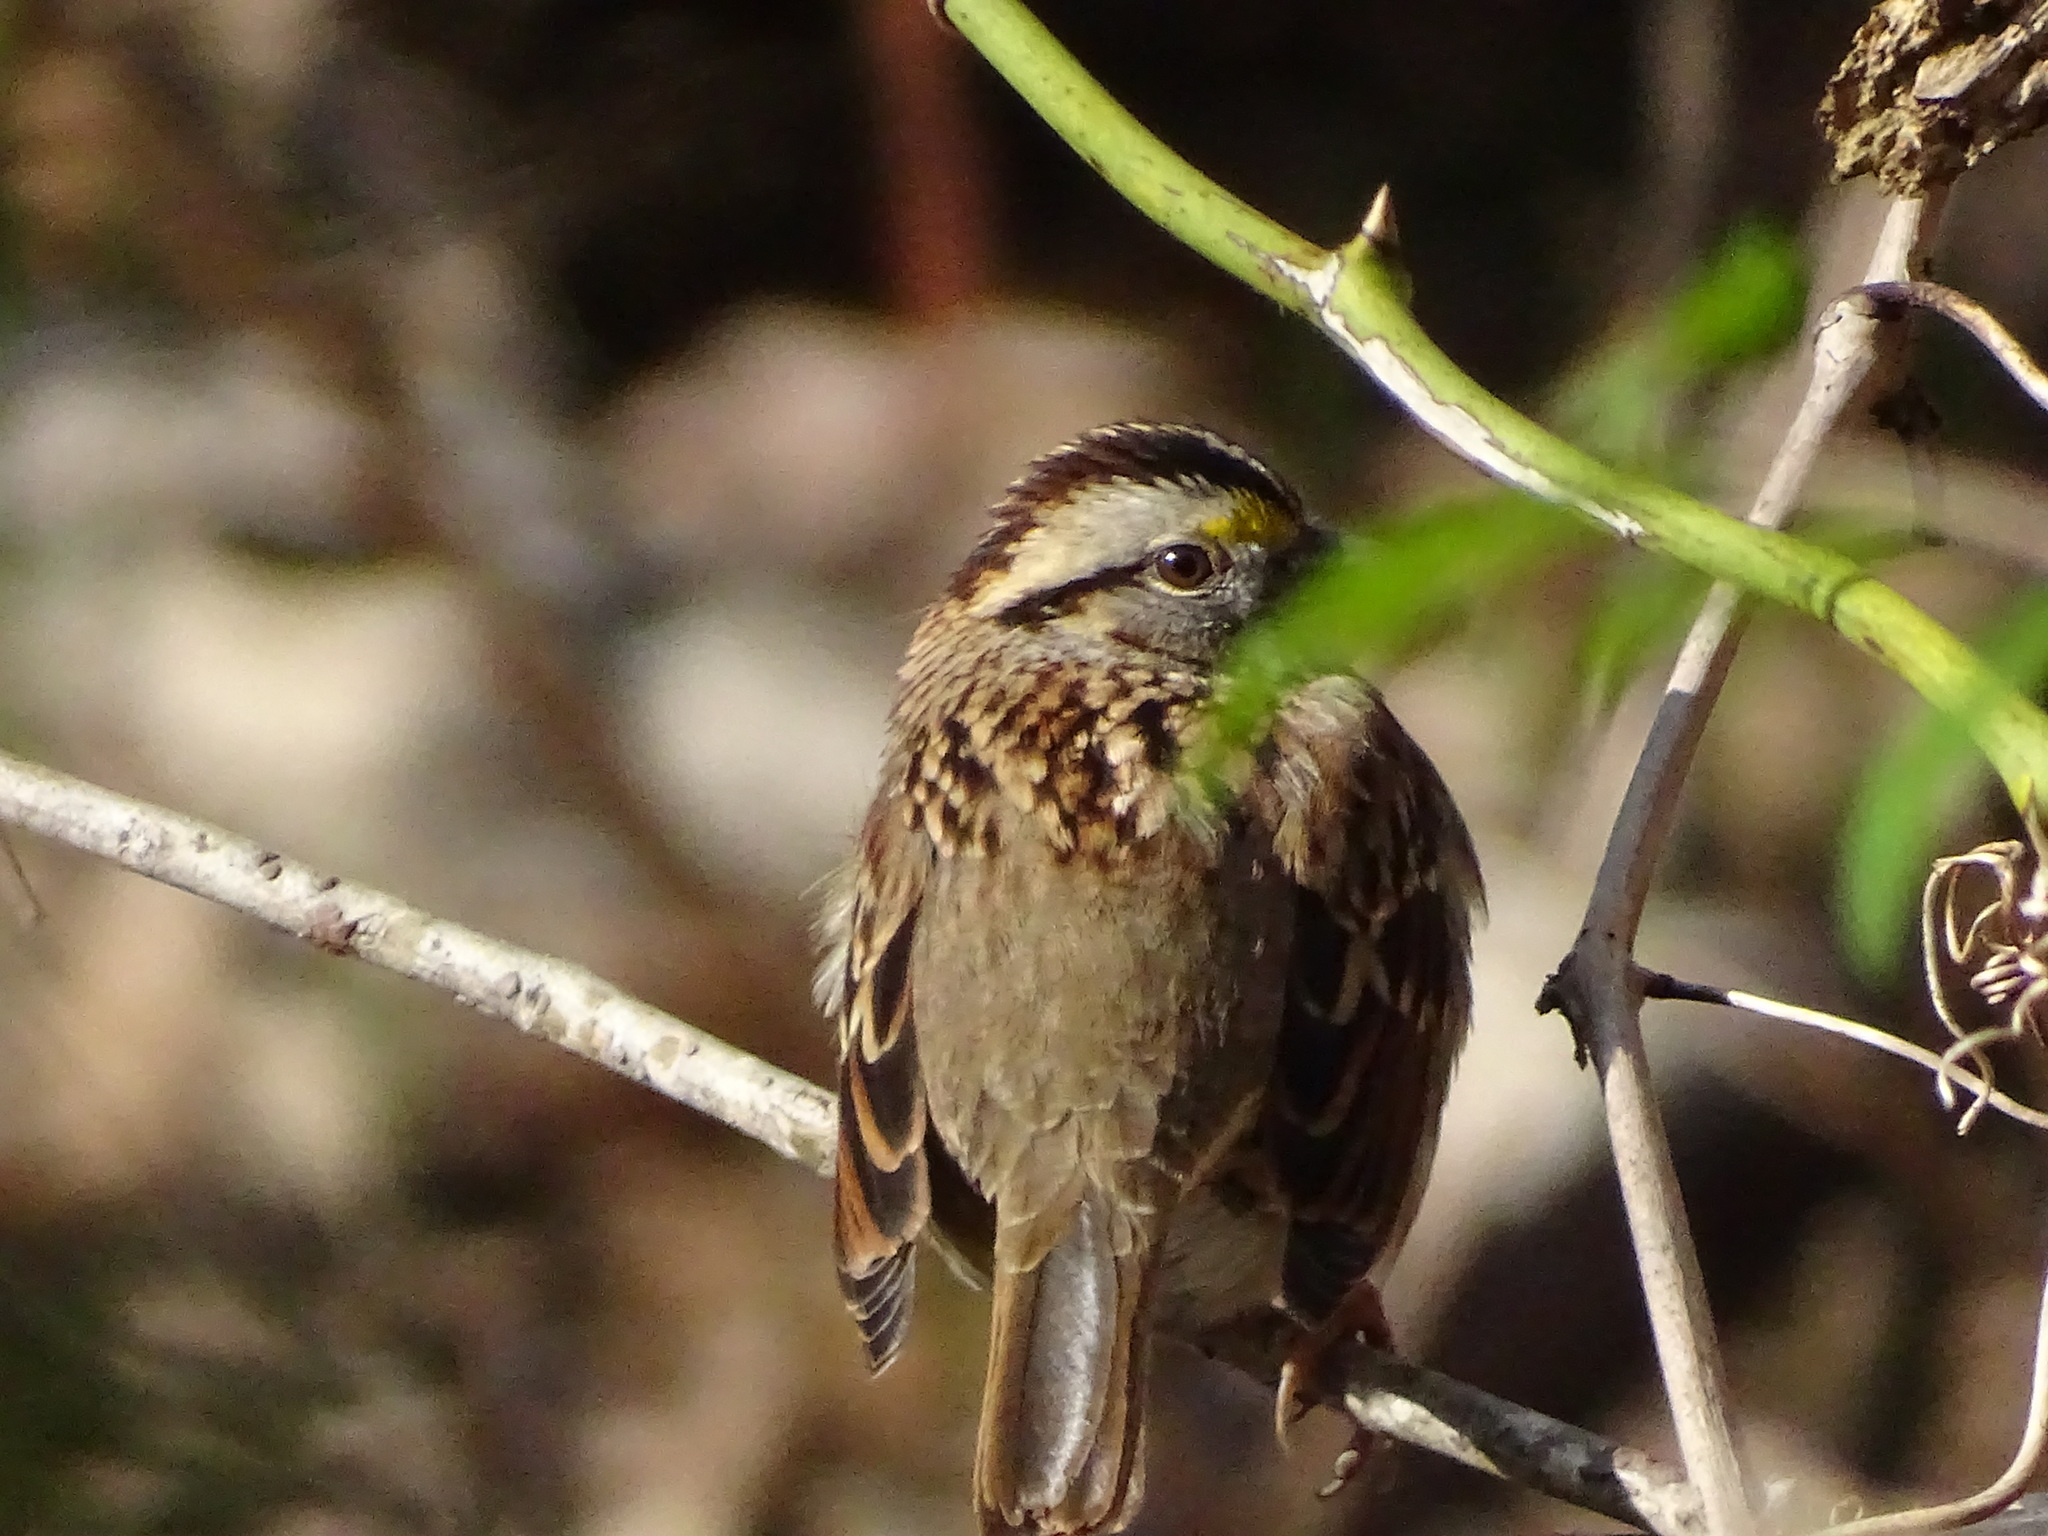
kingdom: Animalia
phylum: Chordata
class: Aves
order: Passeriformes
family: Passerellidae
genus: Zonotrichia
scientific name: Zonotrichia albicollis
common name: White-throated sparrow
